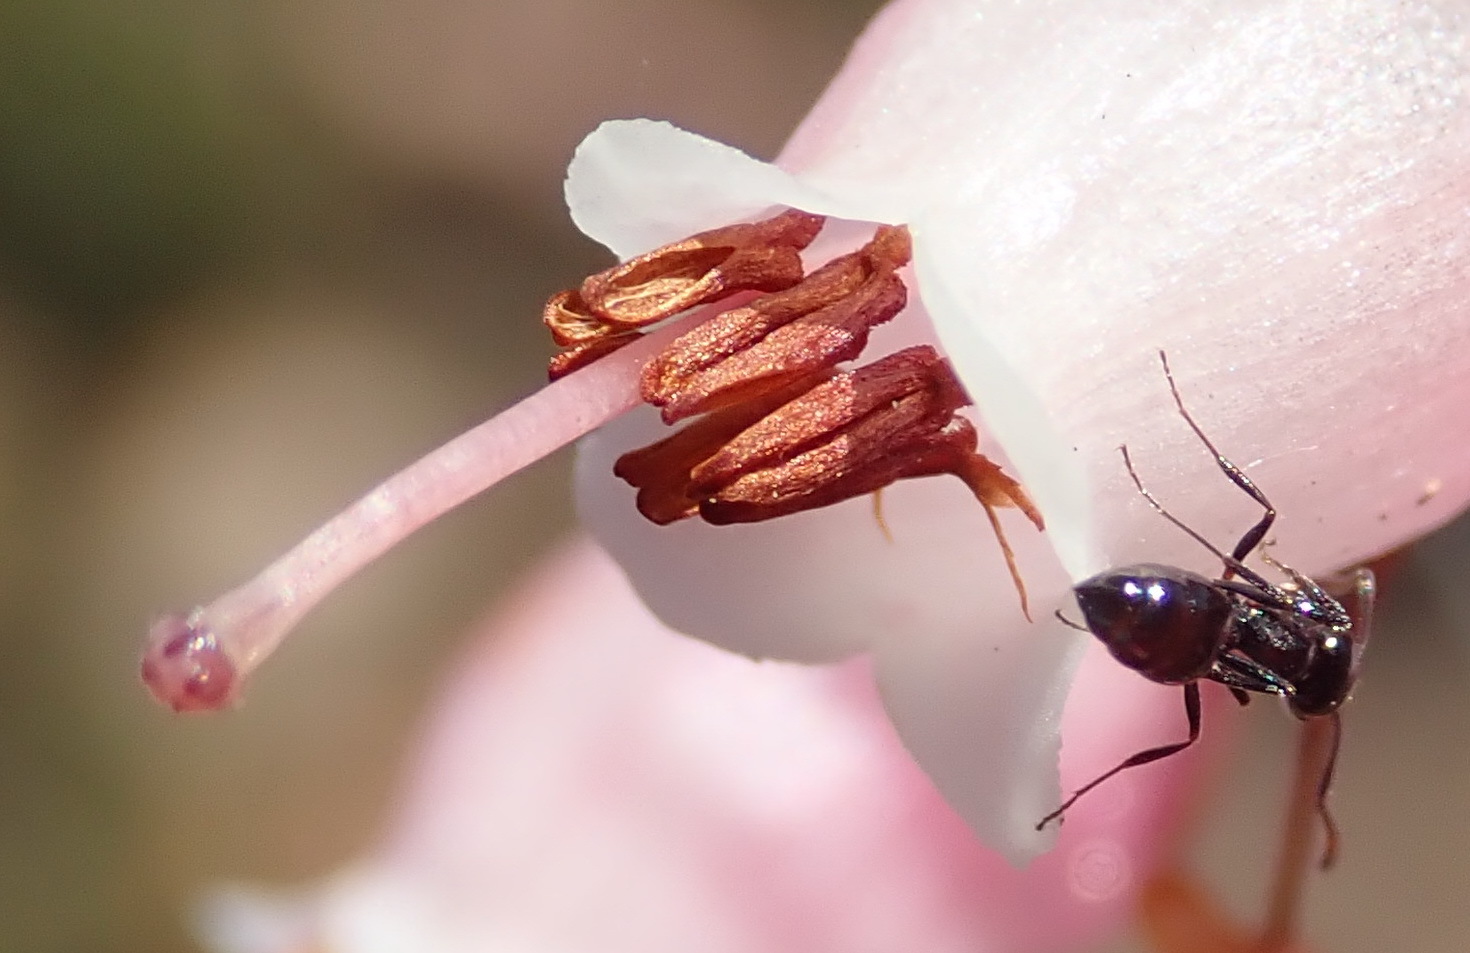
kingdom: Animalia
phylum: Arthropoda
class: Insecta
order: Hymenoptera
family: Formicidae
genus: Monomorium
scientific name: Monomorium fridae
